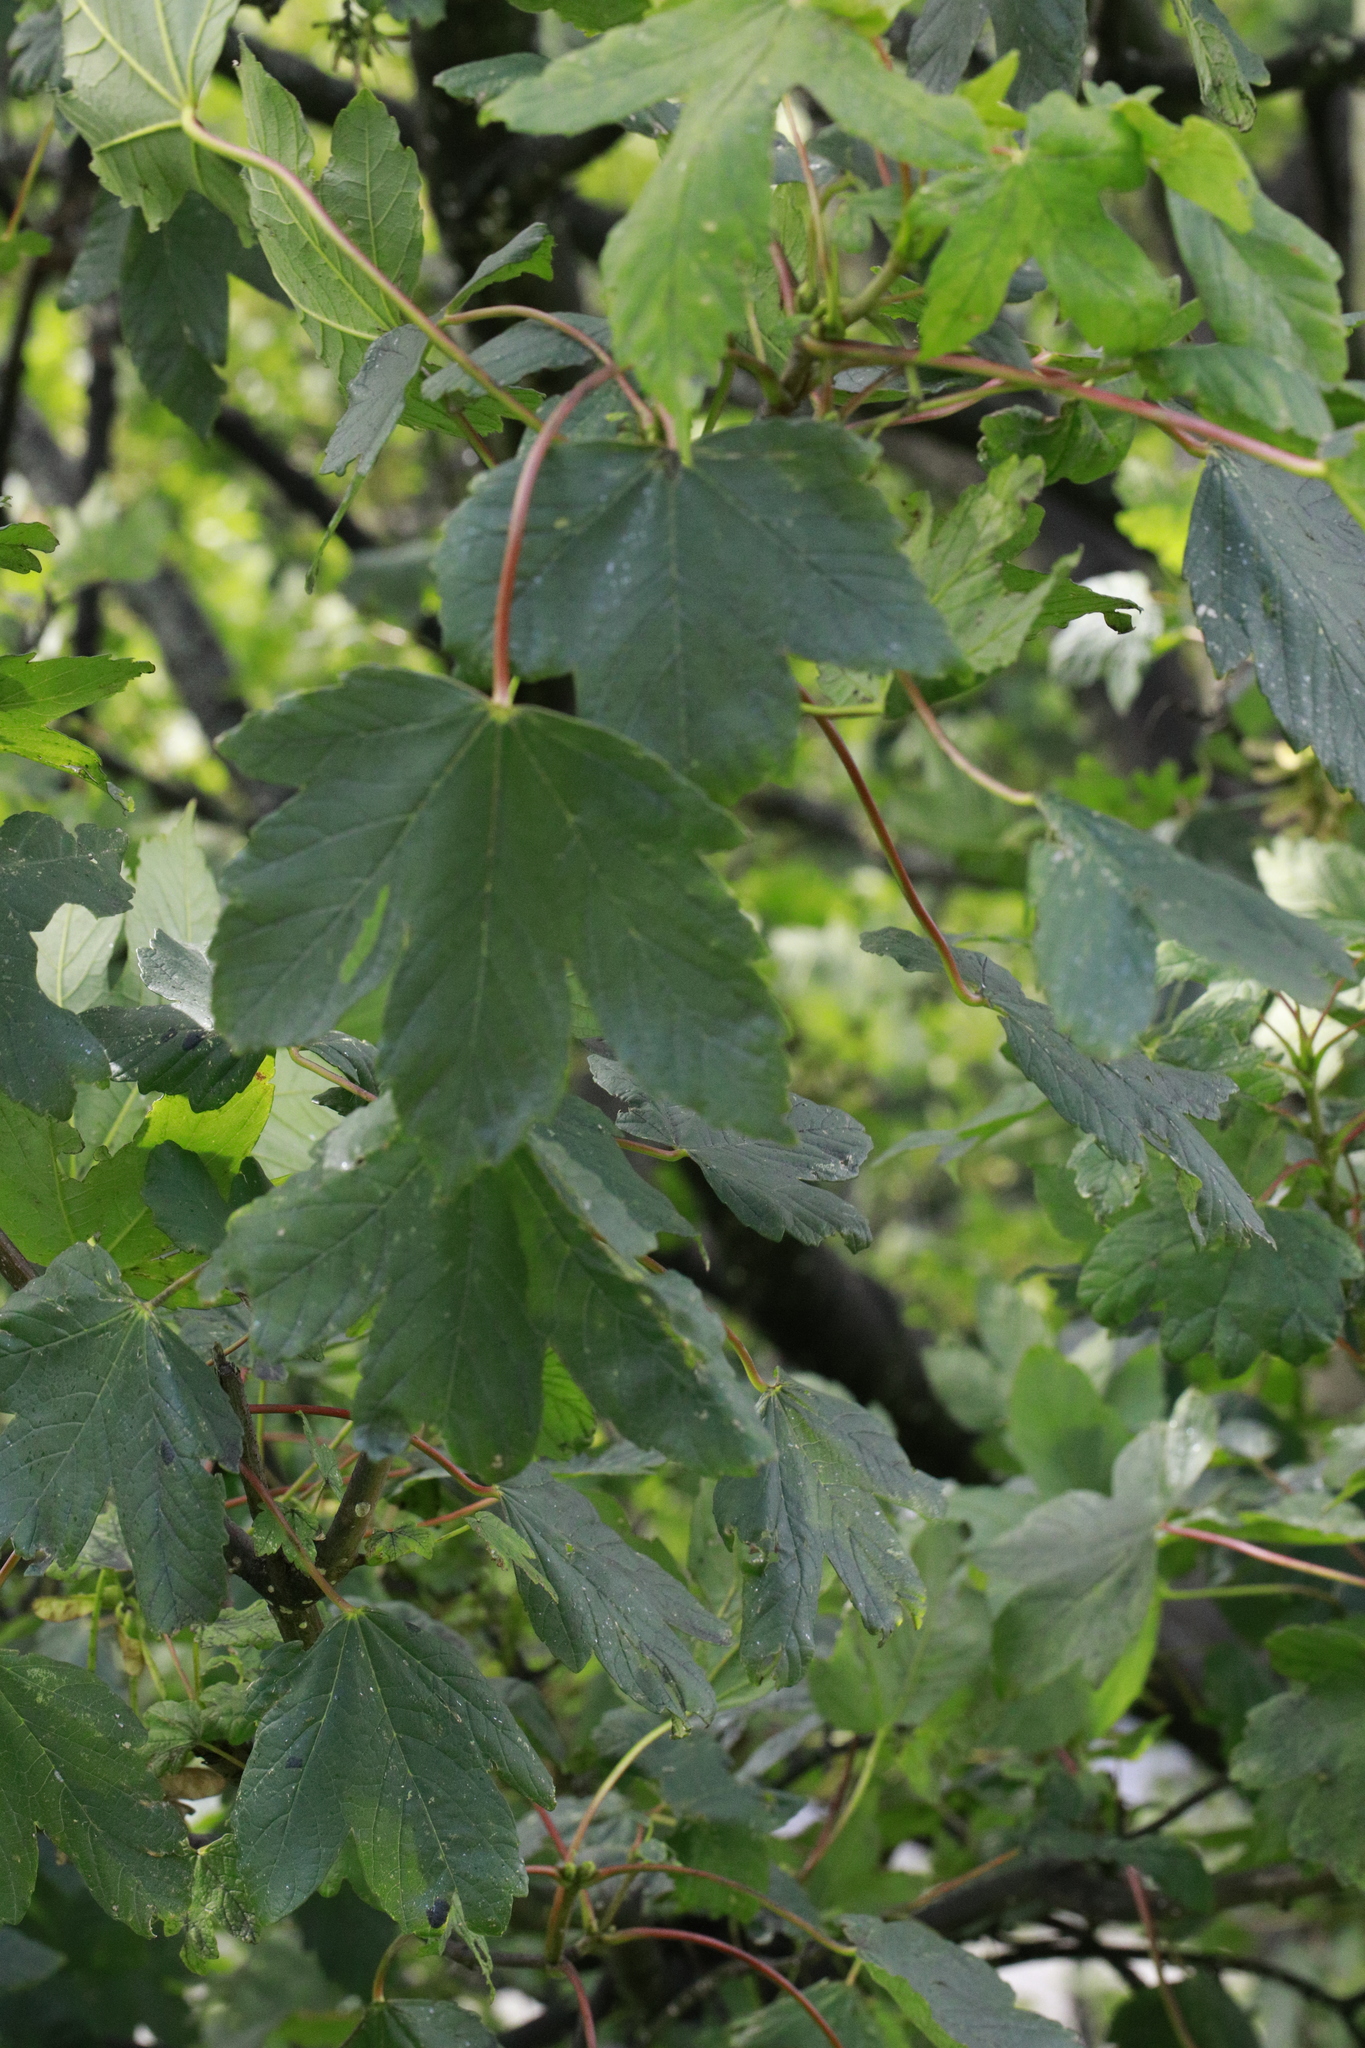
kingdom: Plantae
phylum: Tracheophyta
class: Magnoliopsida
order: Sapindales
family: Sapindaceae
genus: Acer
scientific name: Acer pseudoplatanus
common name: Sycamore
